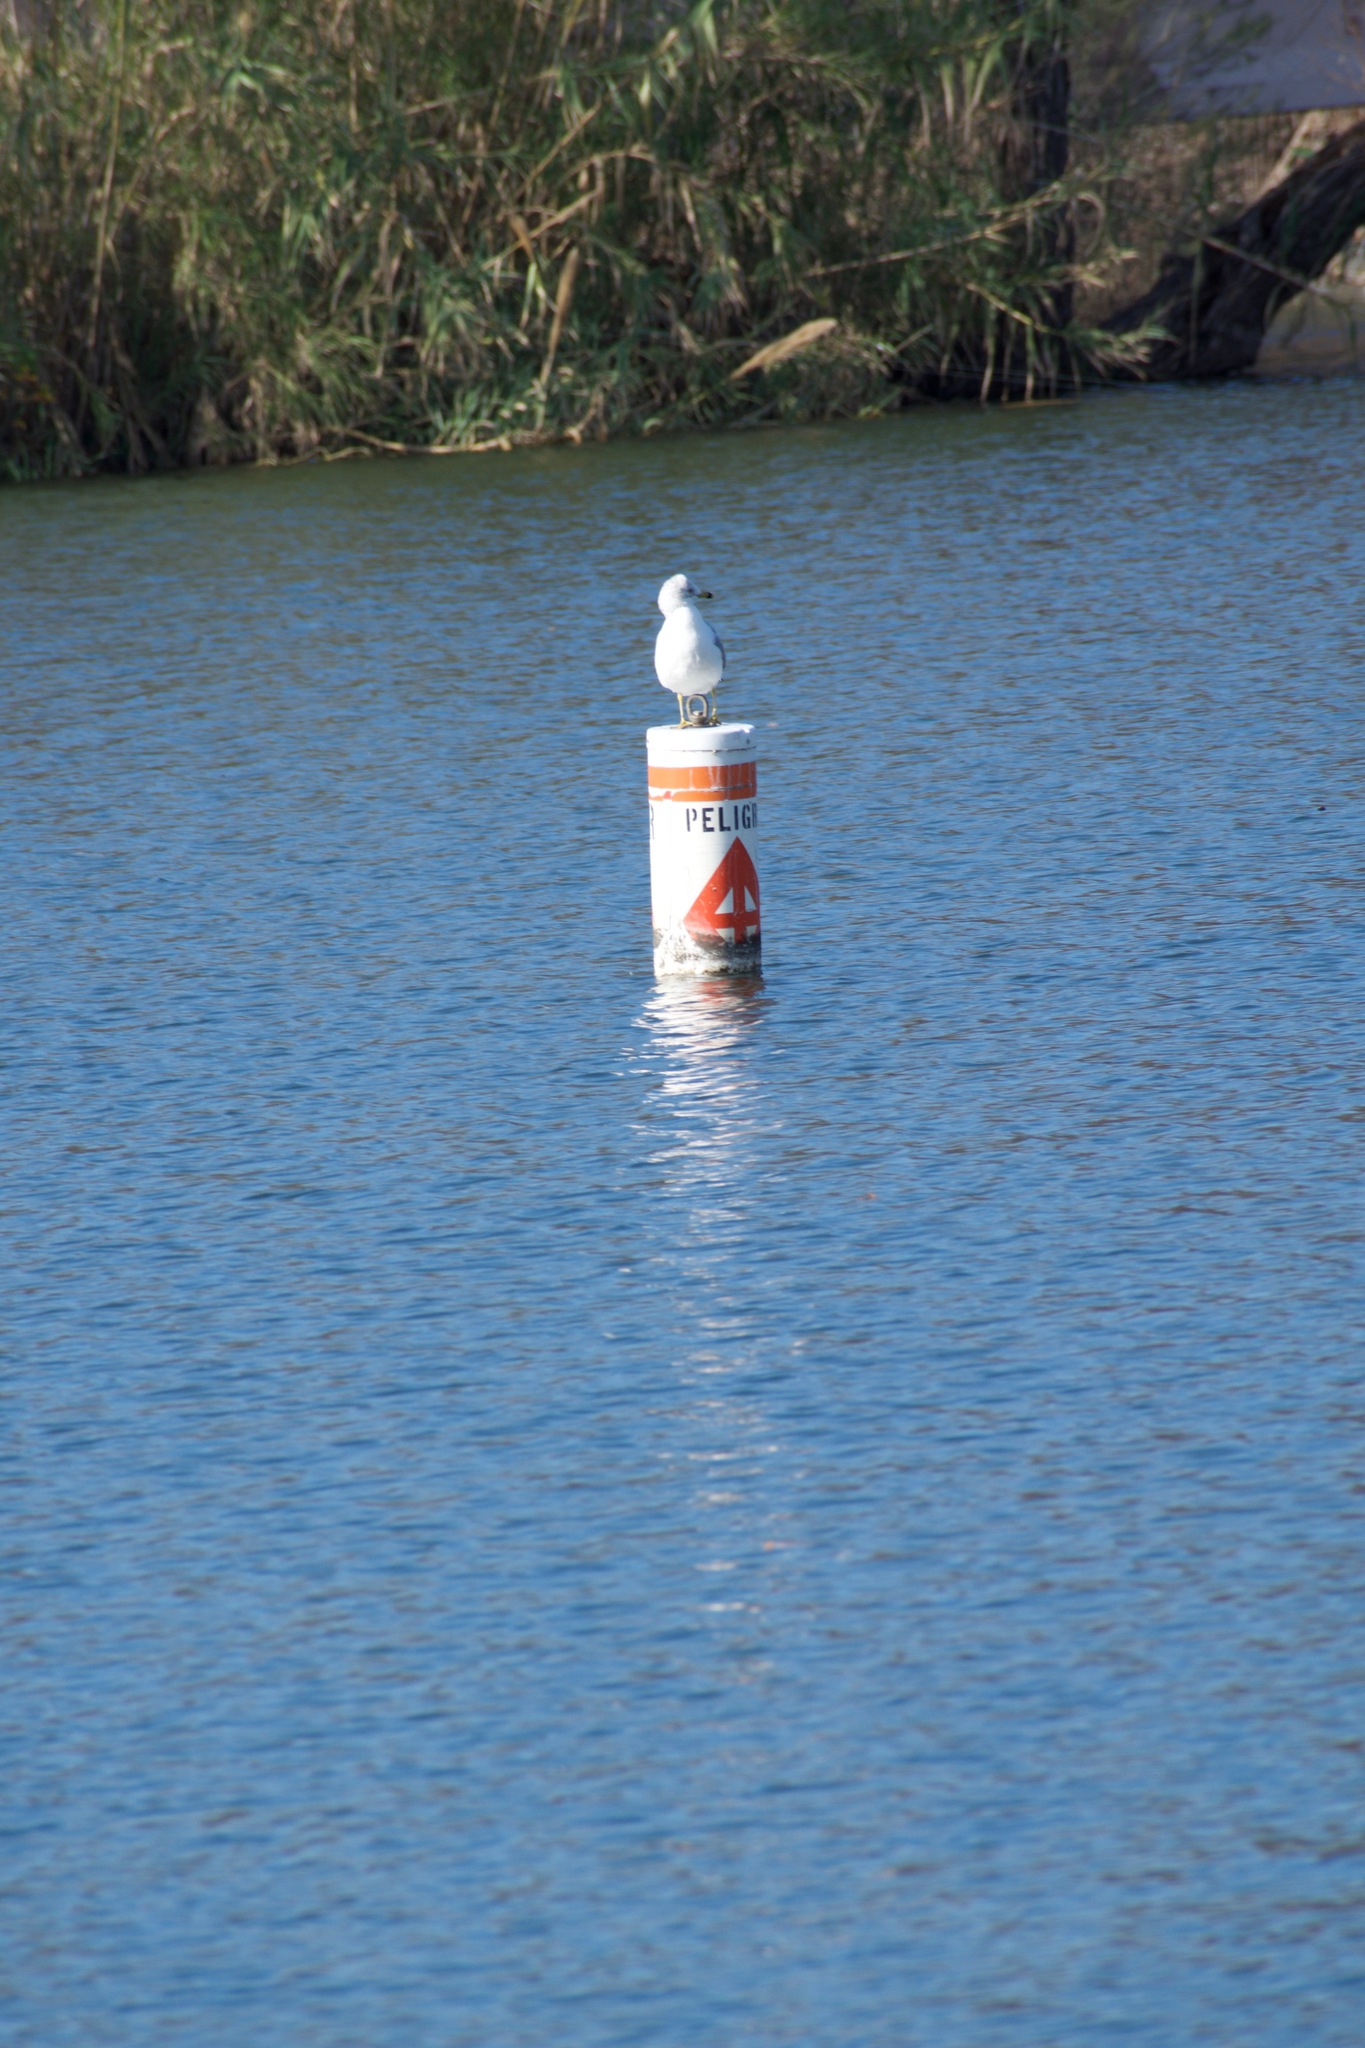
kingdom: Animalia
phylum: Chordata
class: Aves
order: Charadriiformes
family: Laridae
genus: Larus
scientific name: Larus delawarensis
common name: Ring-billed gull
